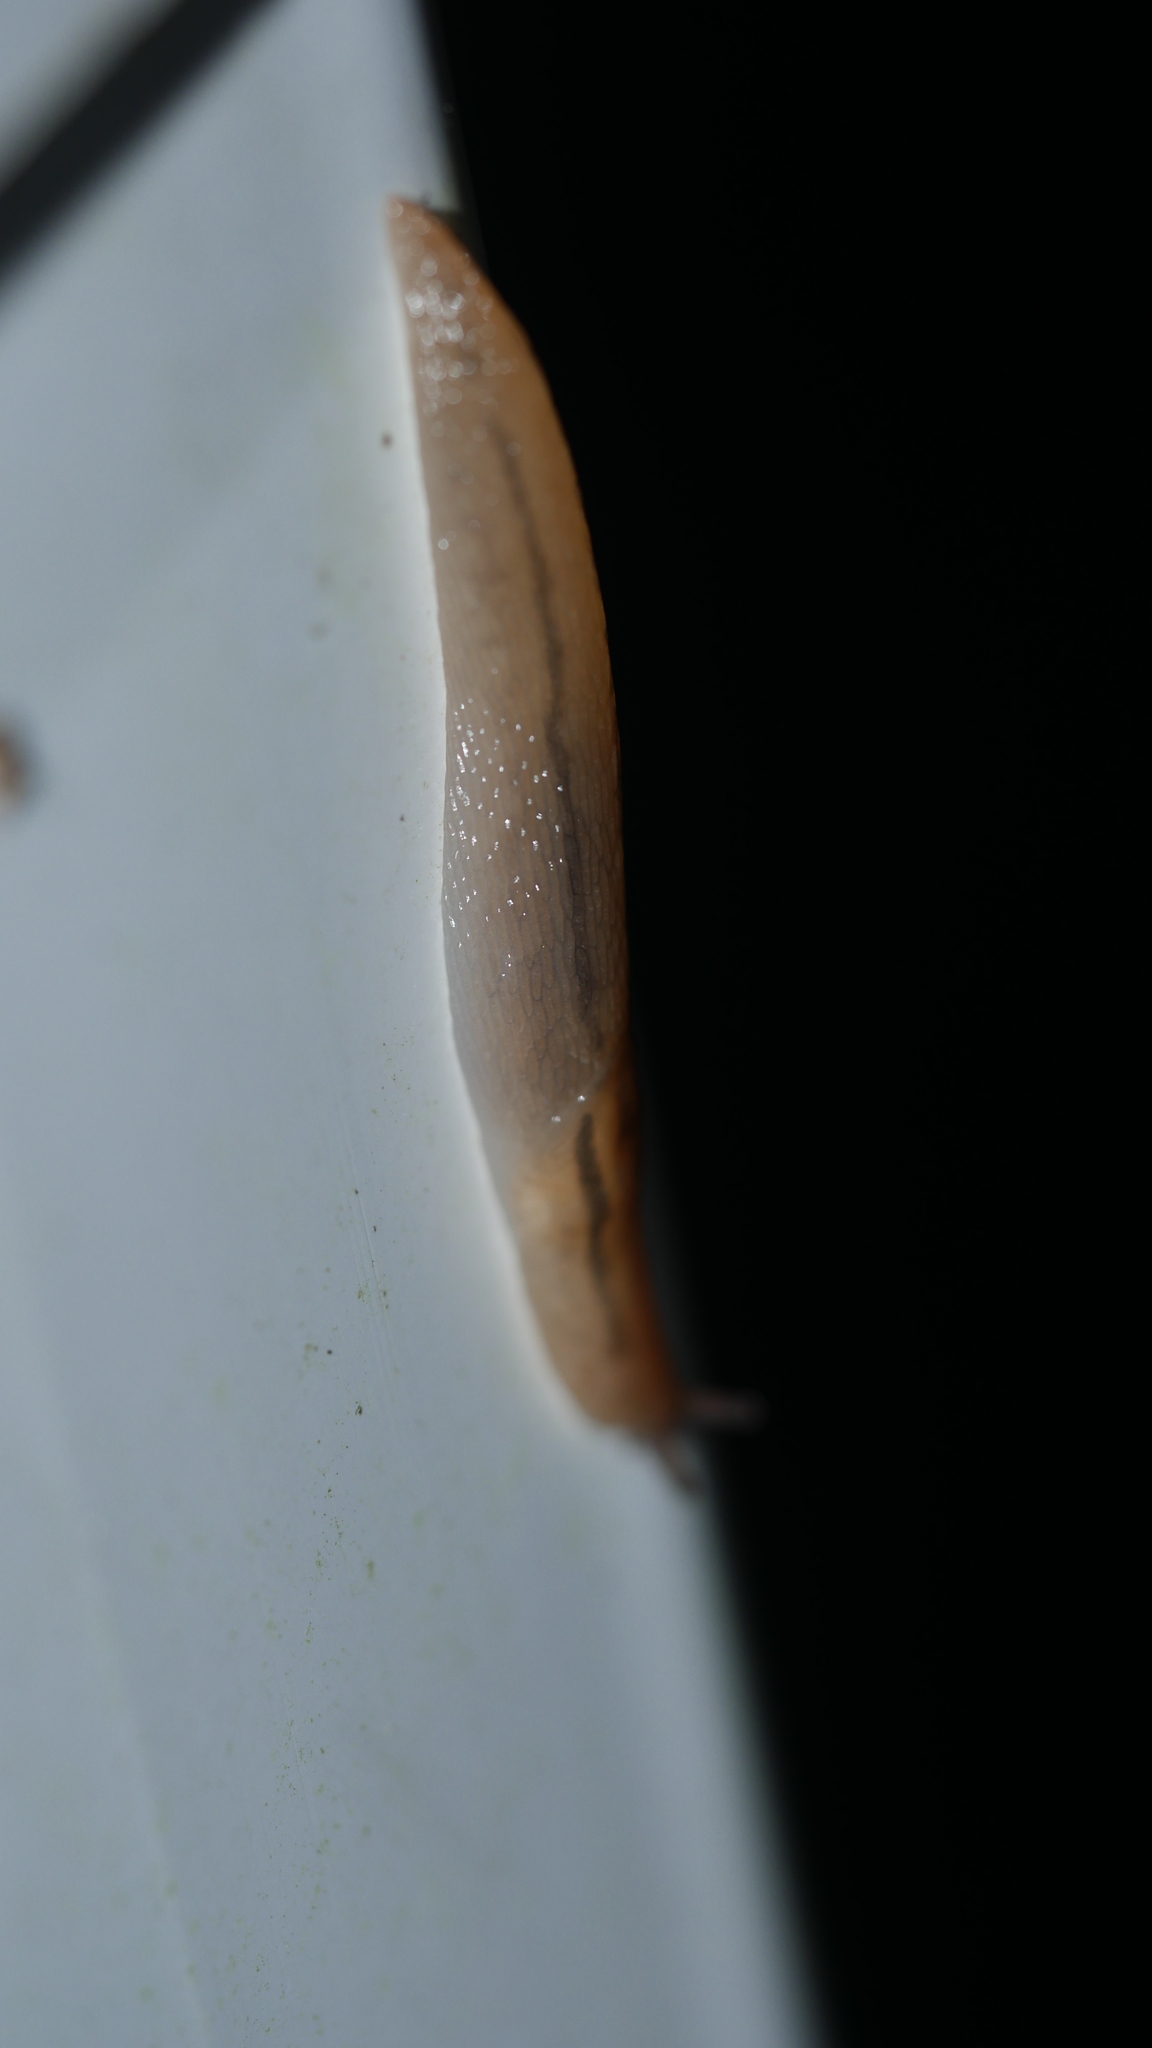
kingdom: Animalia
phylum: Mollusca
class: Gastropoda
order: Stylommatophora
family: Limacidae
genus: Ambigolimax
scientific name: Ambigolimax
